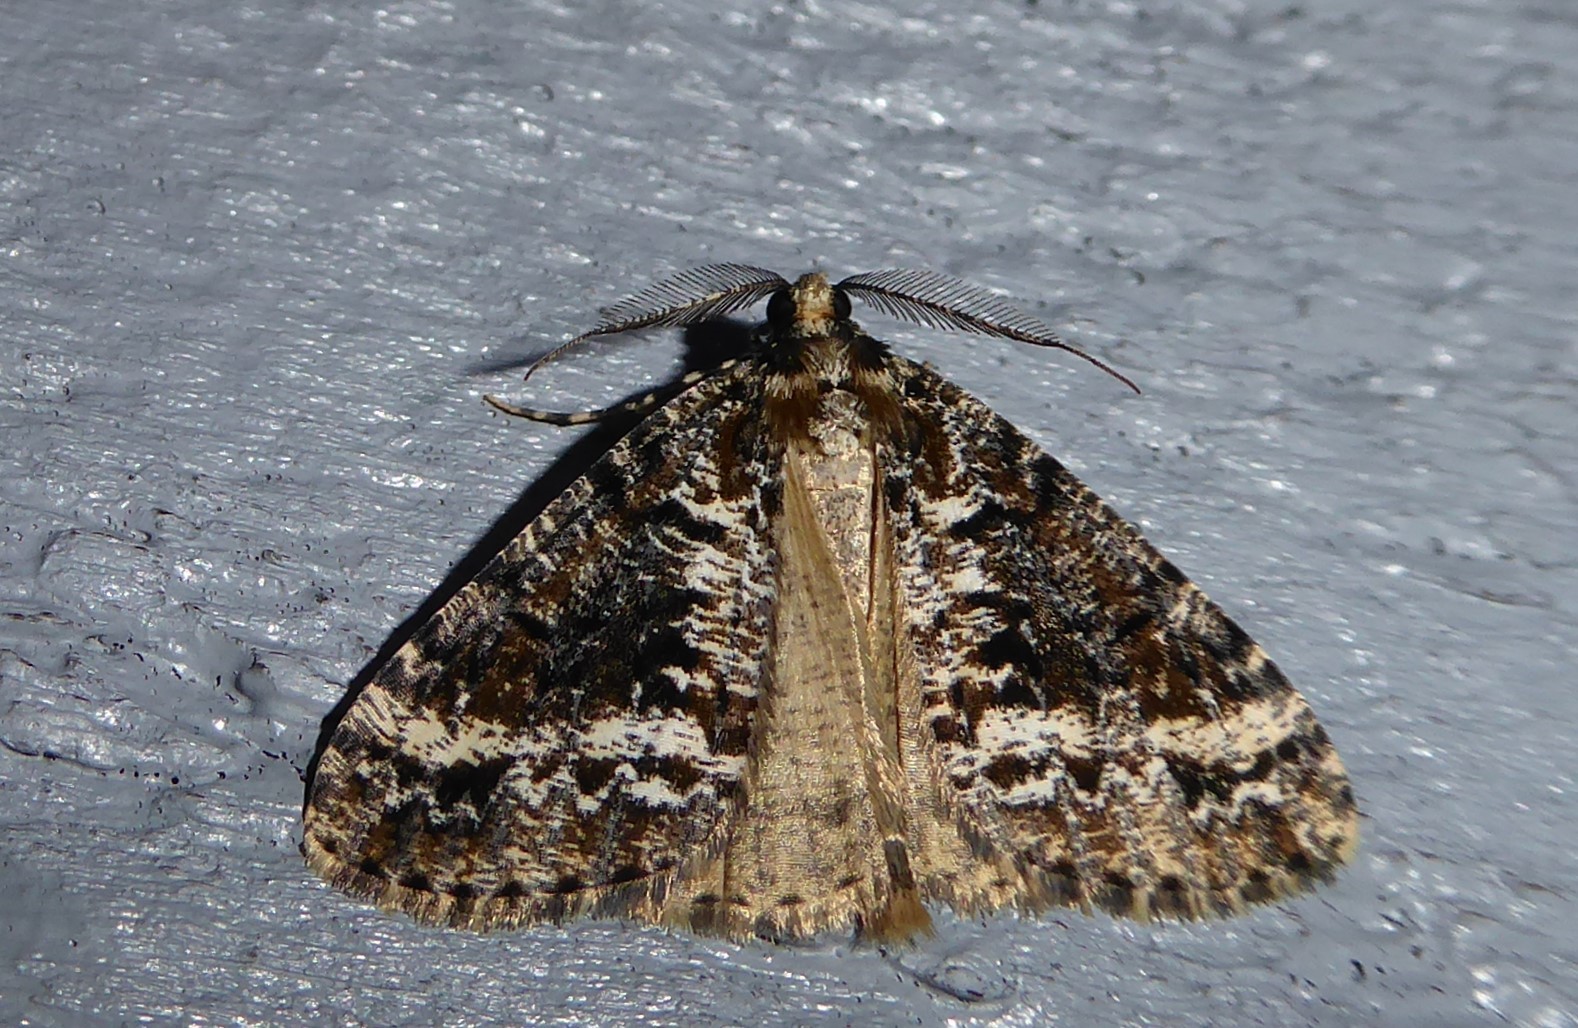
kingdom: Animalia
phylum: Arthropoda
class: Insecta
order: Lepidoptera
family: Geometridae
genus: Pseudocoremia
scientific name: Pseudocoremia leucelaea
